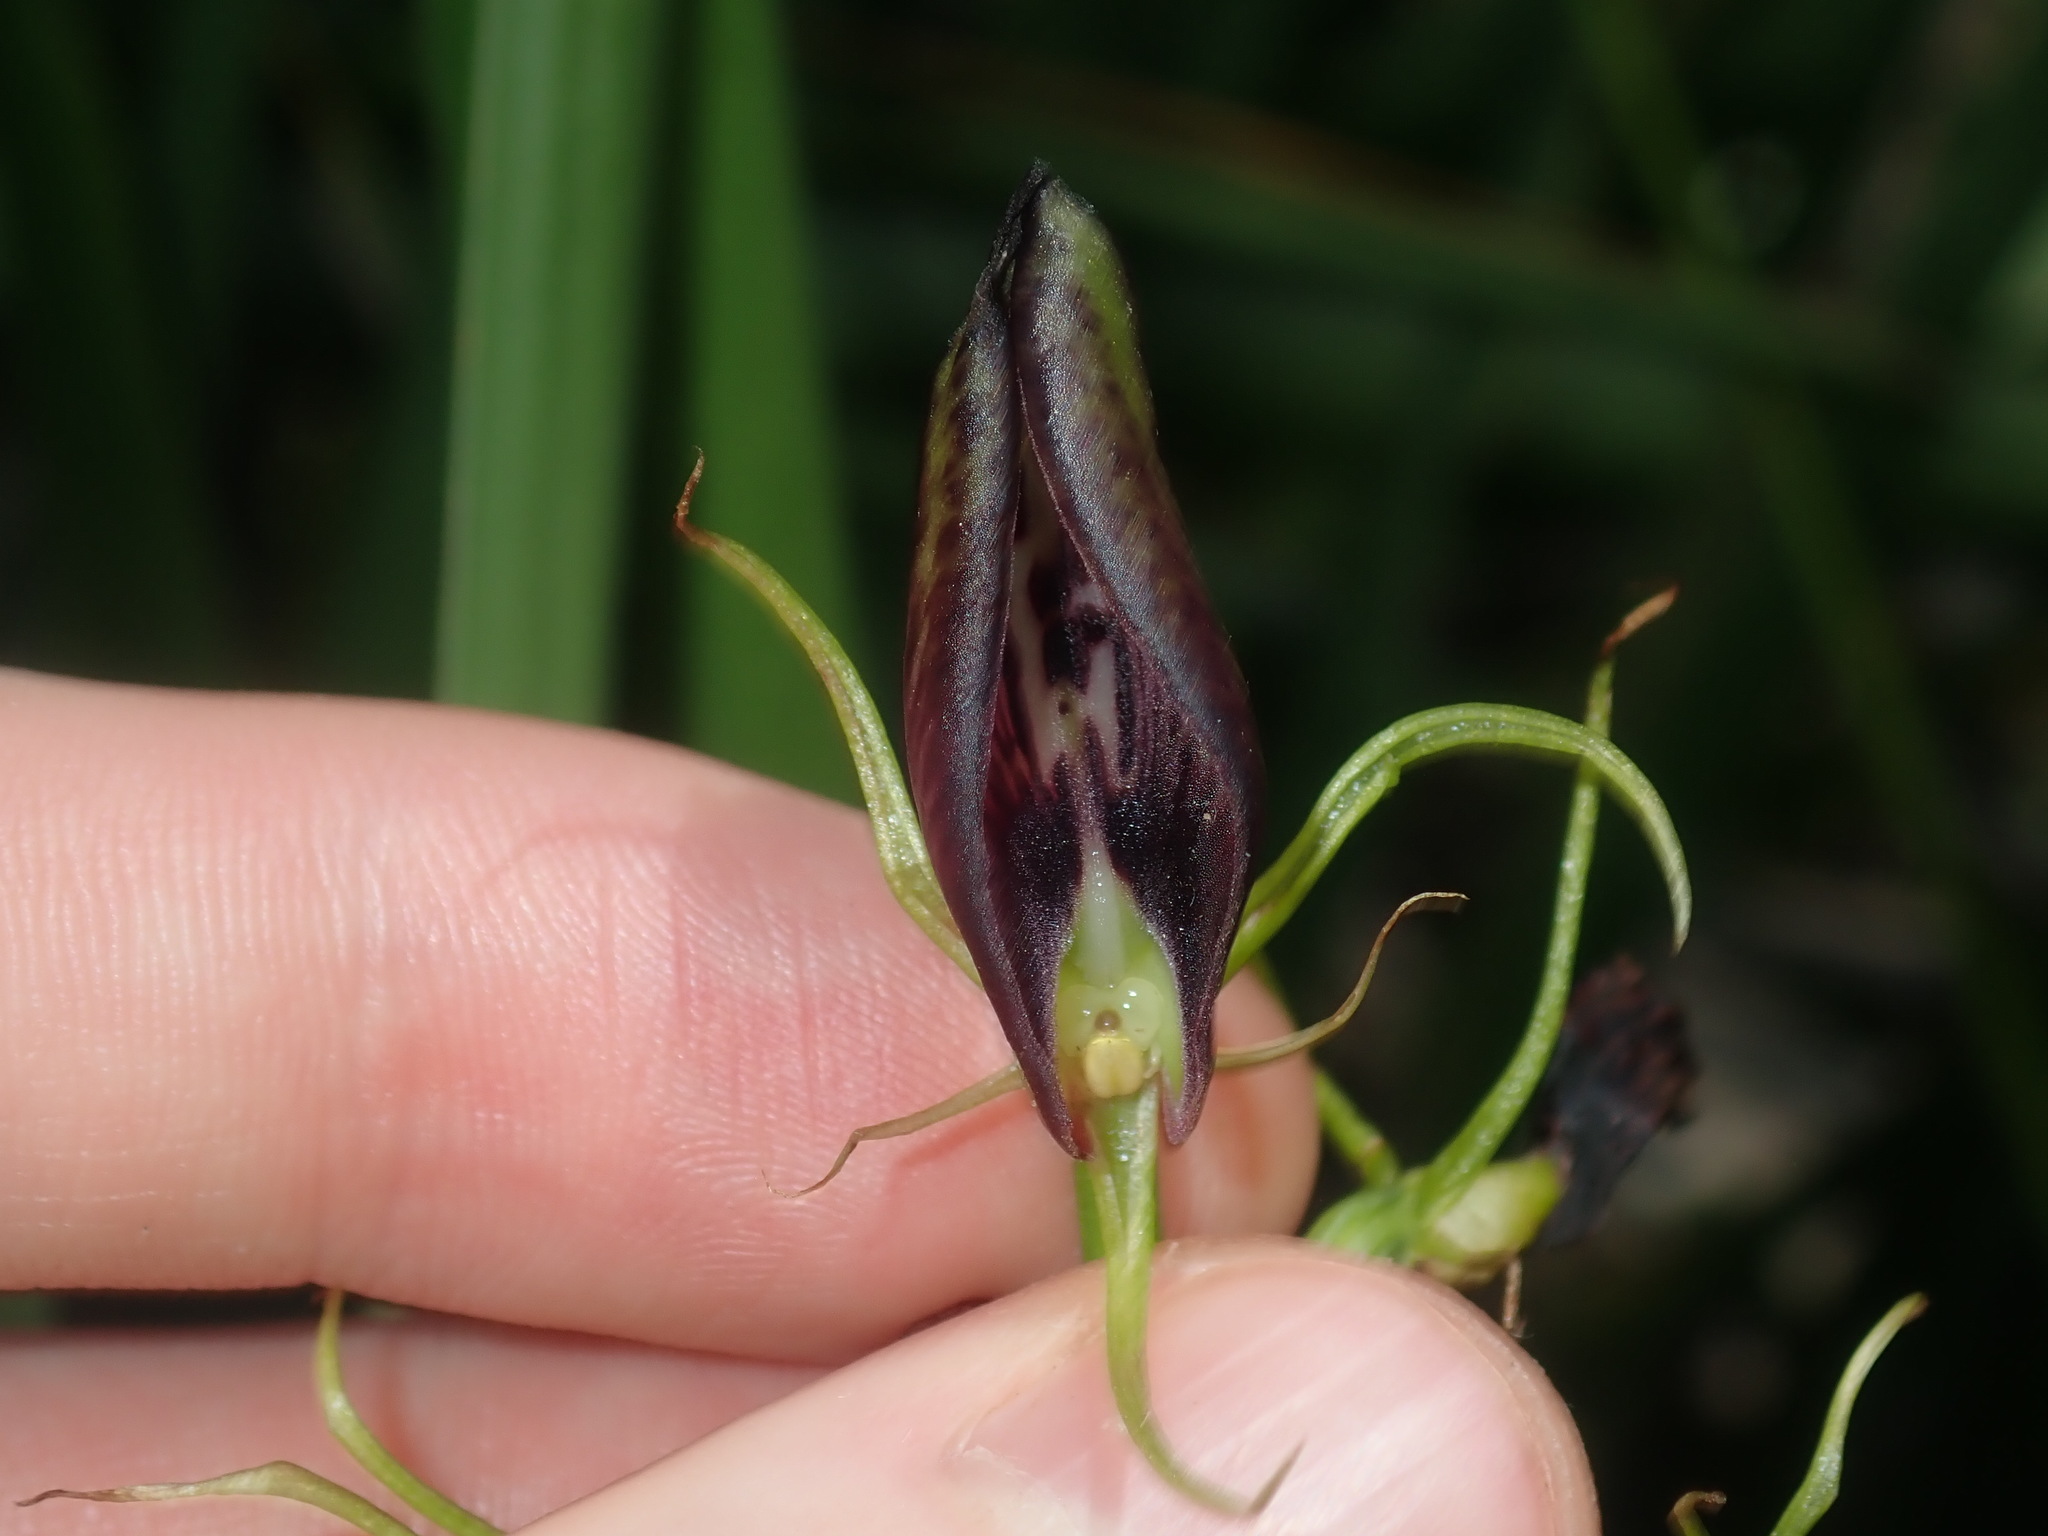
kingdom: Plantae
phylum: Tracheophyta
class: Liliopsida
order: Asparagales
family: Orchidaceae
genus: Cryptostylis
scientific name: Cryptostylis erecta
